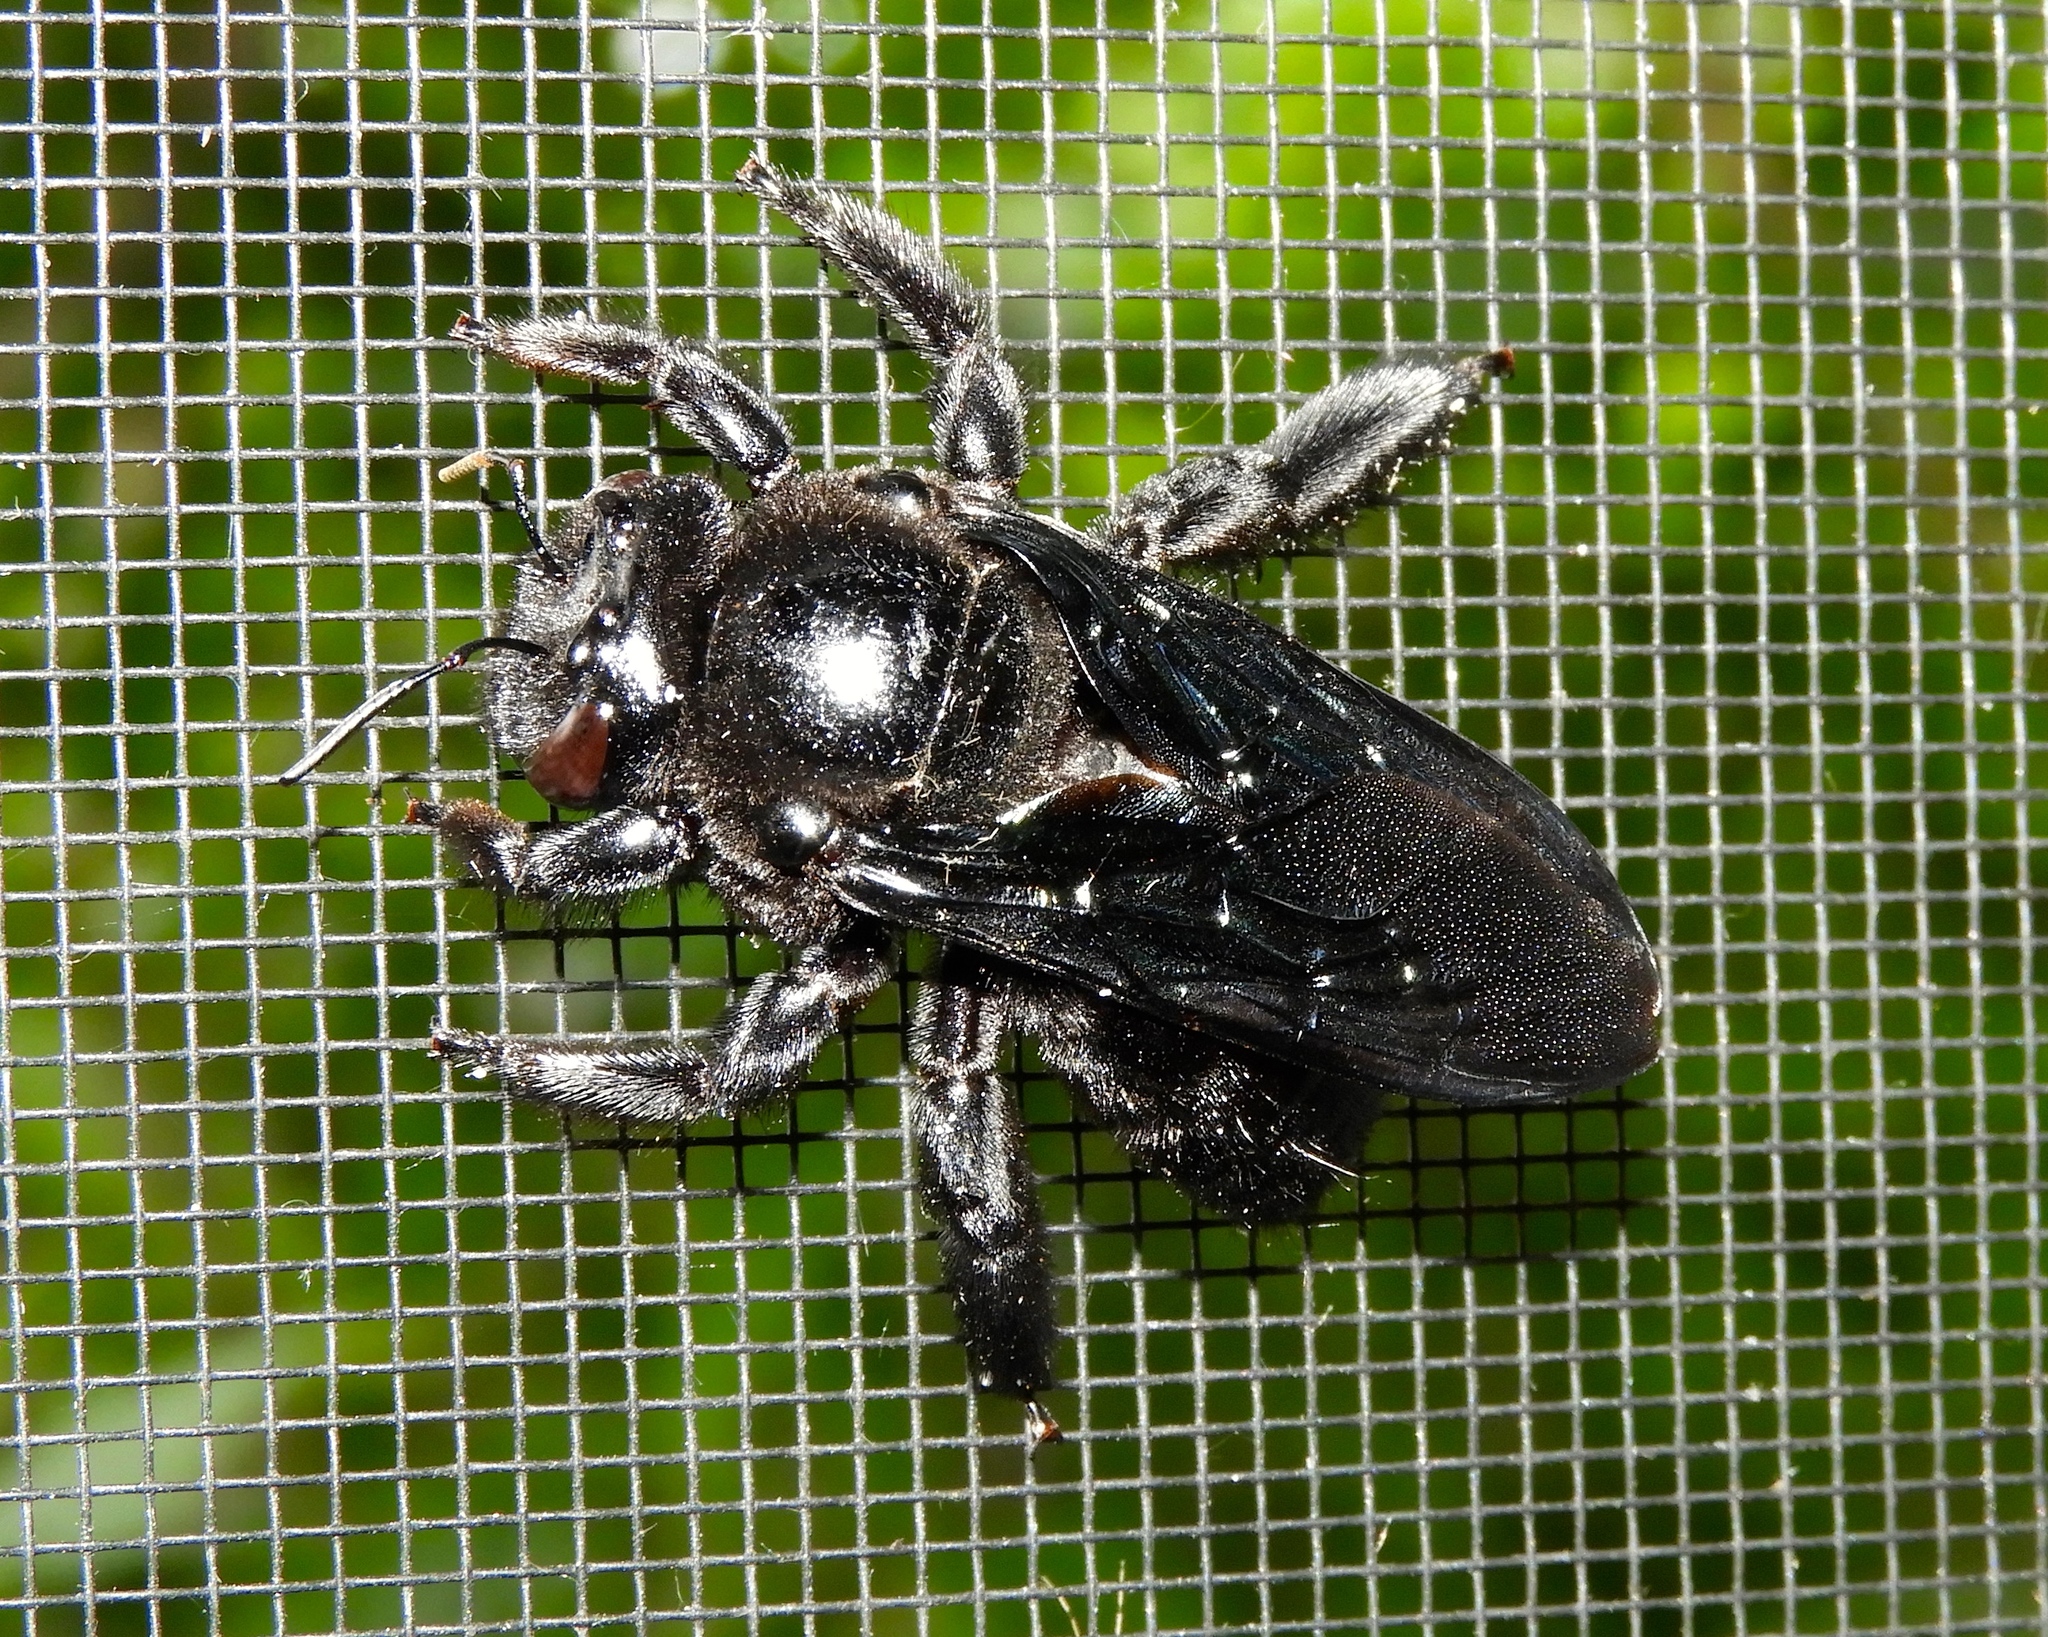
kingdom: Animalia
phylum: Arthropoda
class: Insecta
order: Hymenoptera
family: Apidae
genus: Xylocopa
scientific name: Xylocopa fimbriata
